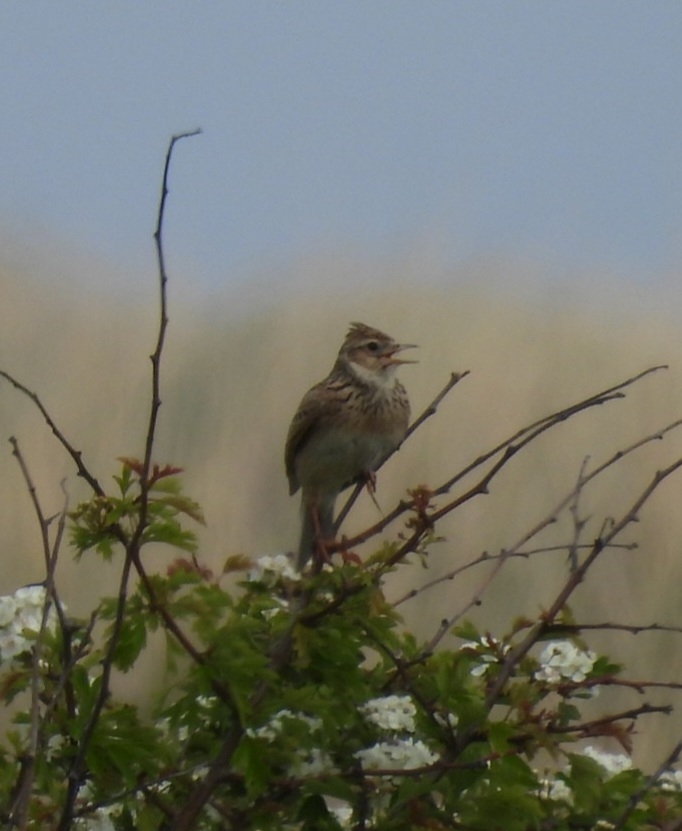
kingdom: Animalia
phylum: Chordata
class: Aves
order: Passeriformes
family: Alaudidae
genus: Alauda
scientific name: Alauda arvensis
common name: Eurasian skylark
